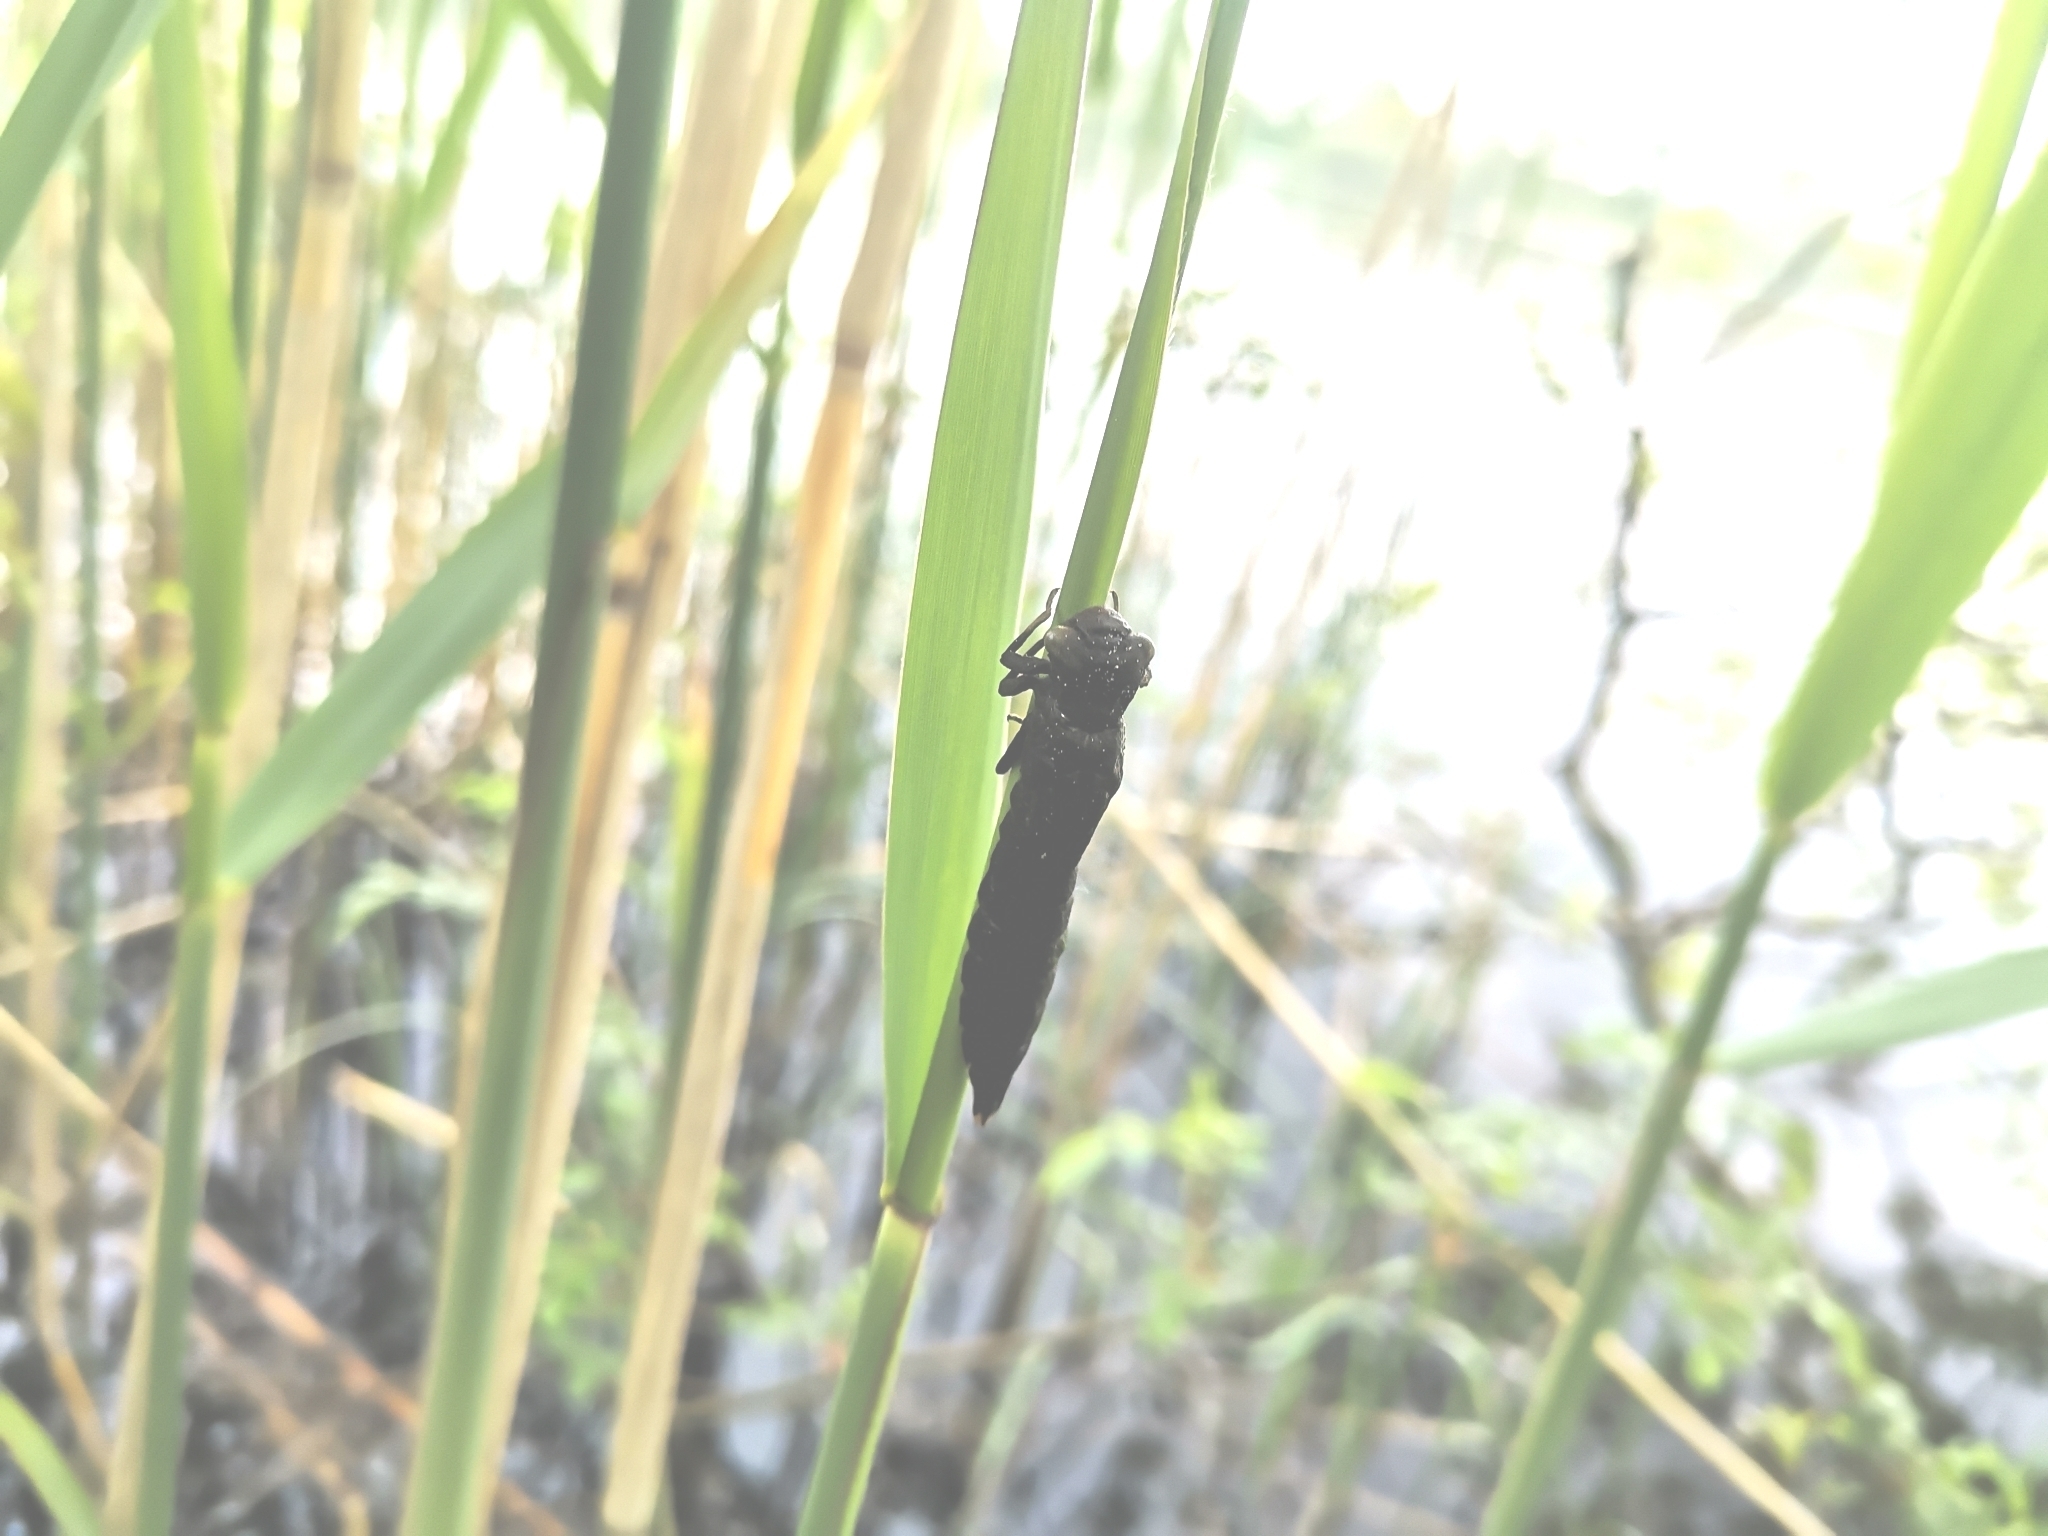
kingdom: Animalia
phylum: Arthropoda
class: Insecta
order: Odonata
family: Aeshnidae
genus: Brachytron
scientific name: Brachytron pratense
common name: Hairy hawker
